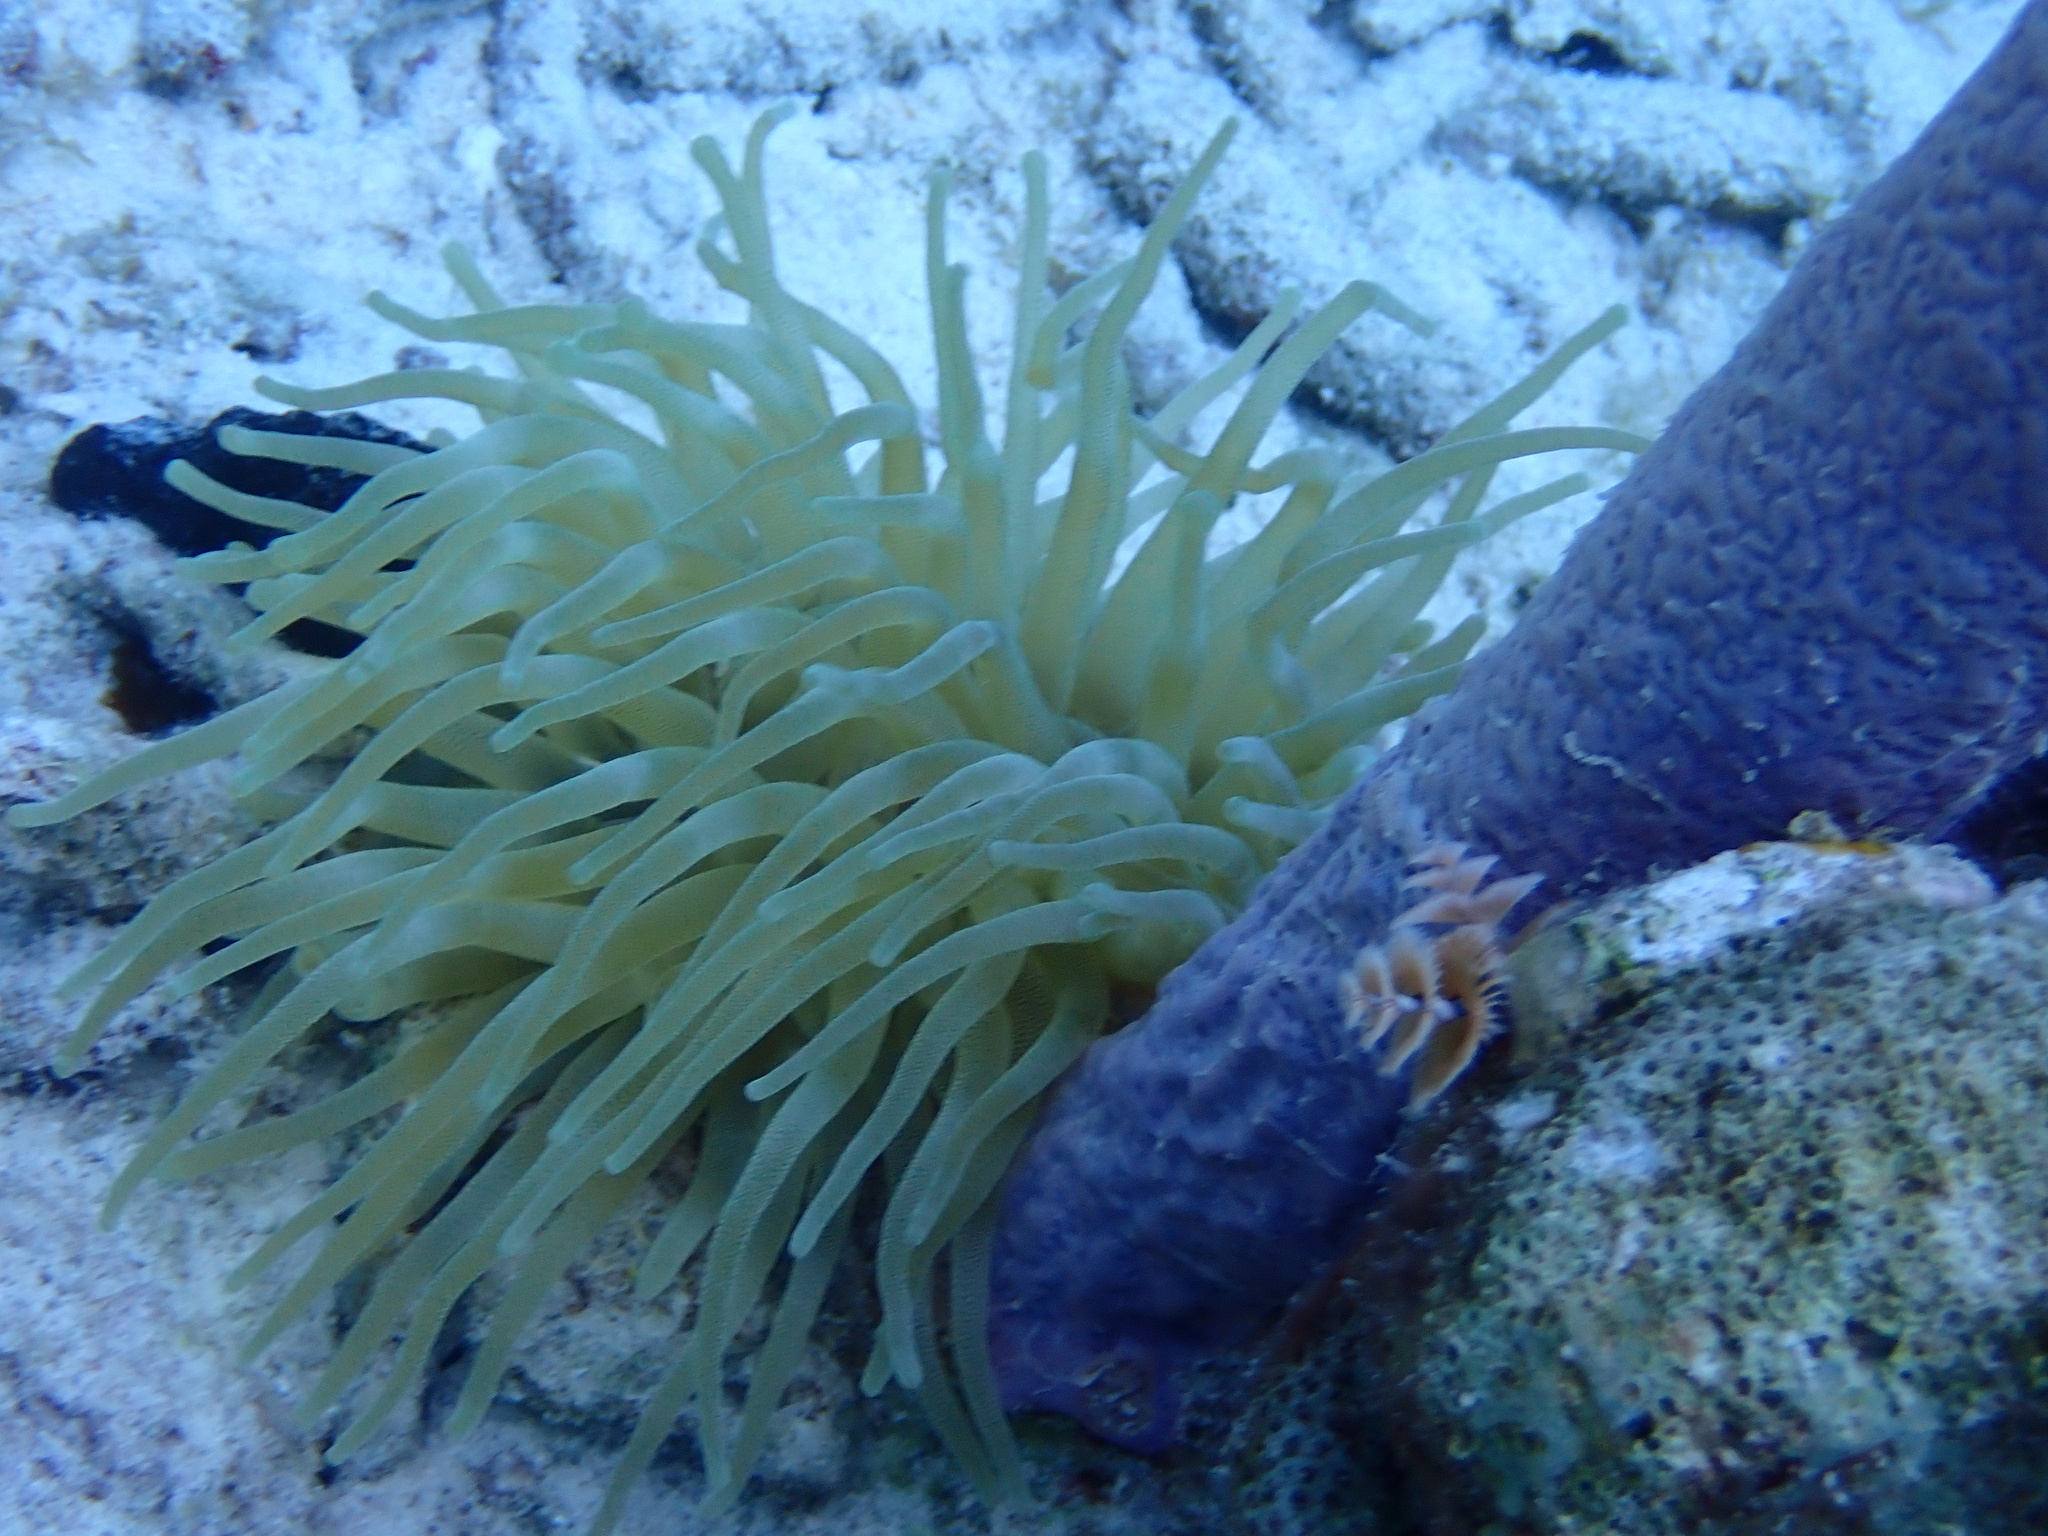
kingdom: Animalia
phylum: Cnidaria
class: Anthozoa
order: Actiniaria
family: Actiniidae
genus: Condylactis
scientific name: Condylactis gigantea
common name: Giant caribbean anemone
